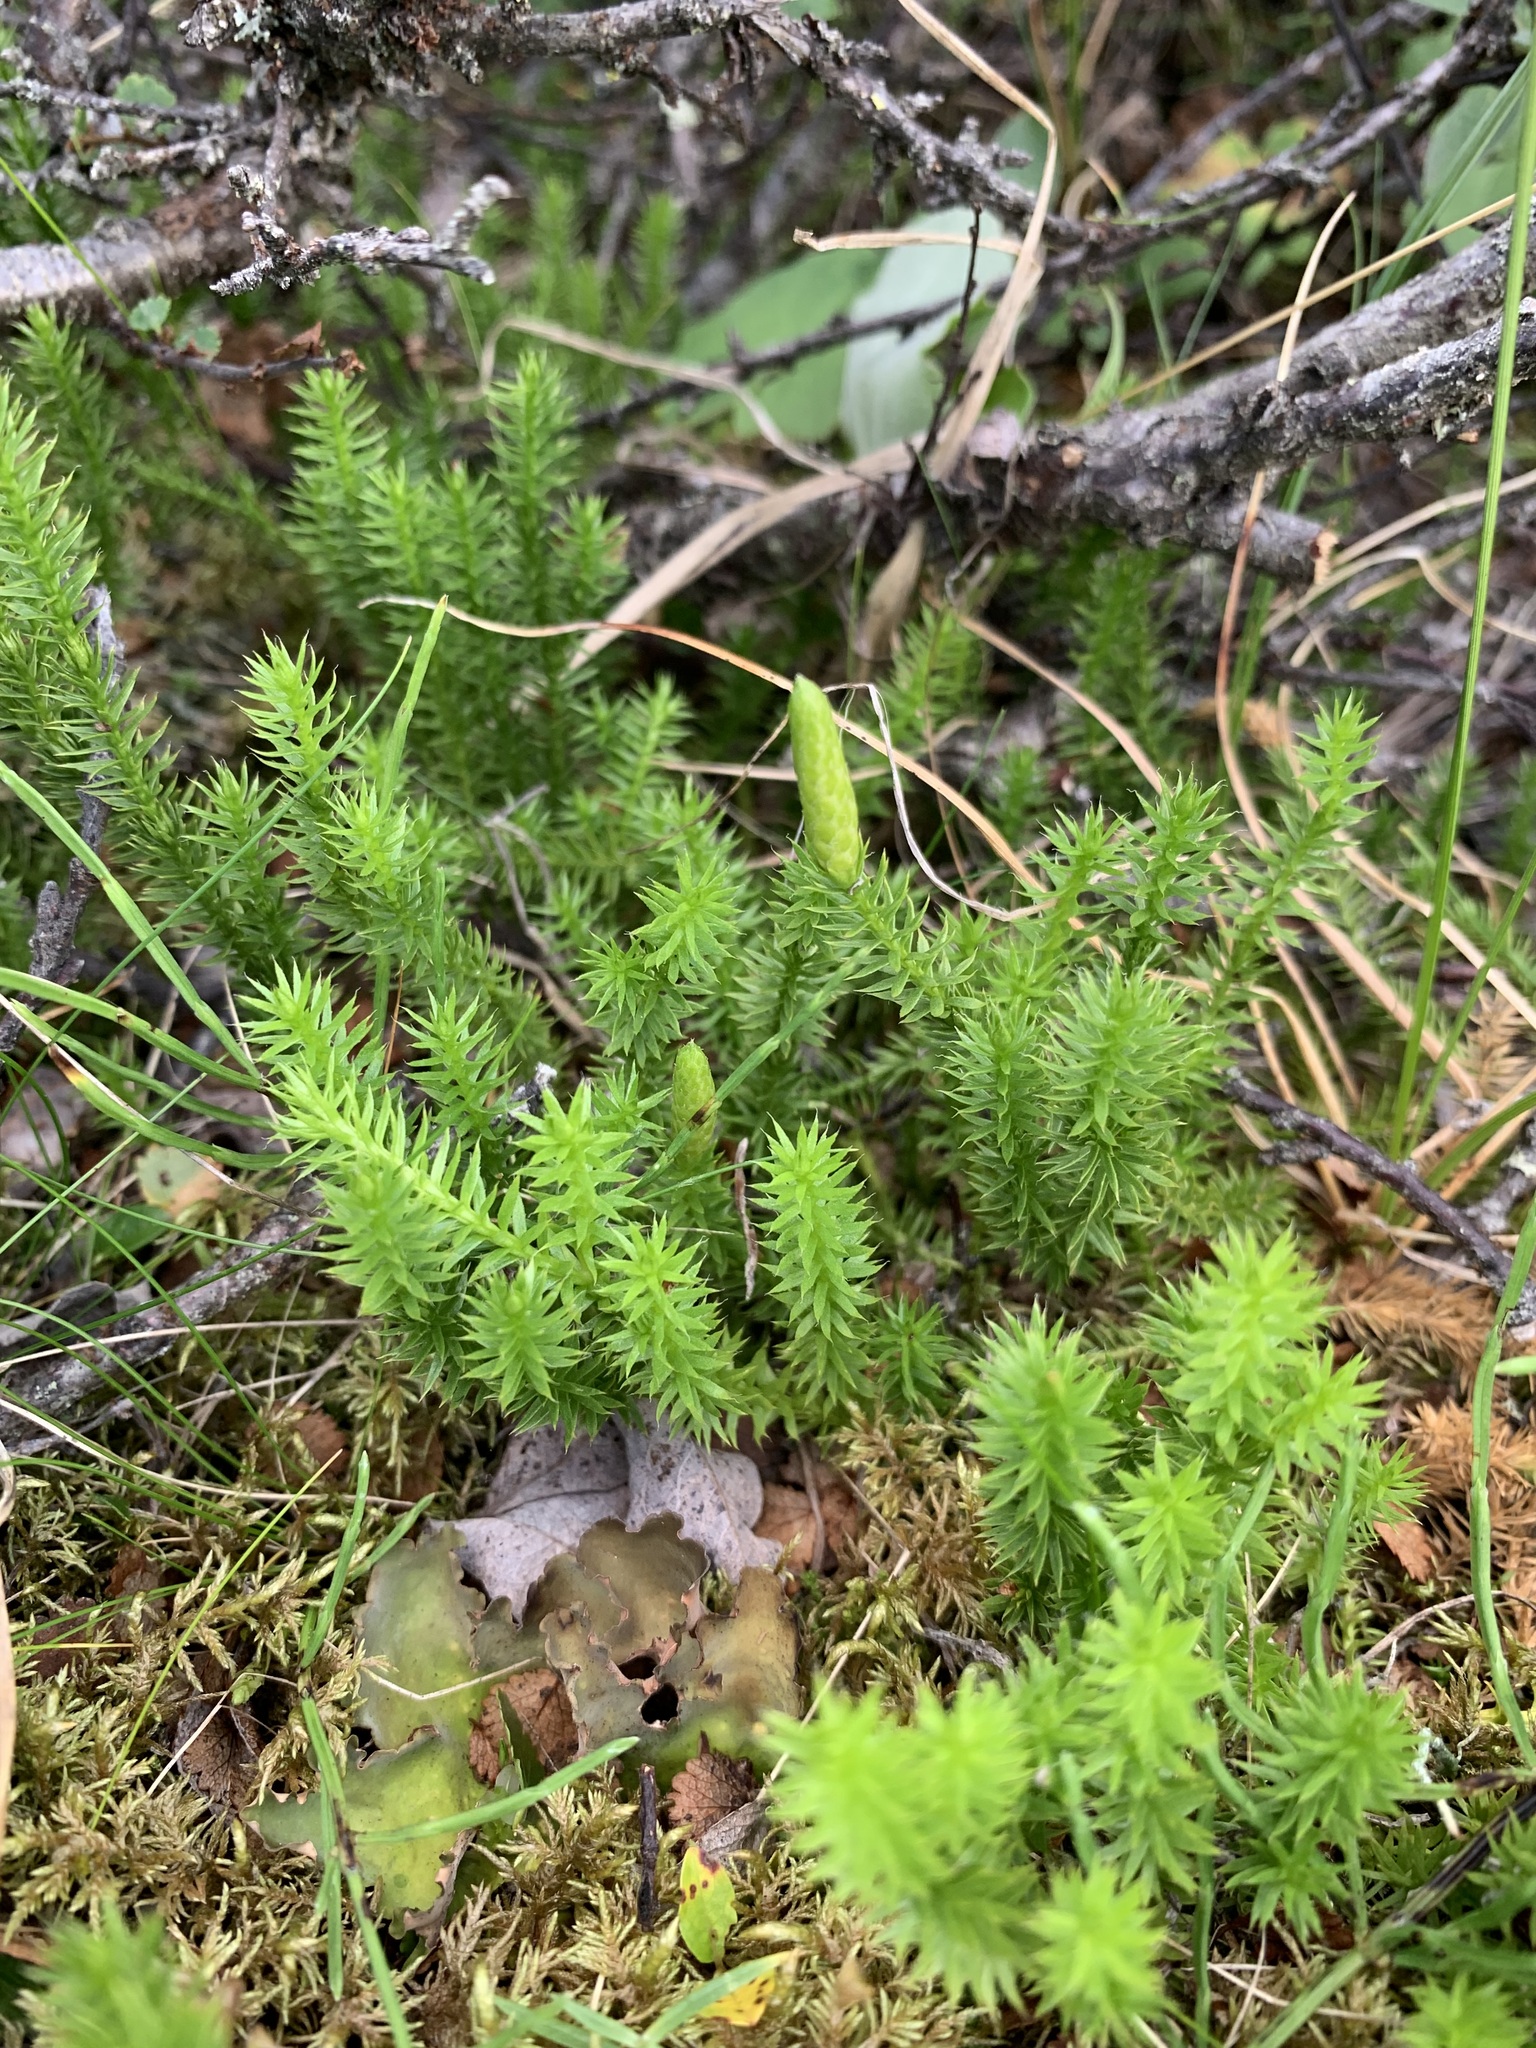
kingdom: Plantae
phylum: Tracheophyta
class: Lycopodiopsida
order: Lycopodiales
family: Lycopodiaceae
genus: Spinulum
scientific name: Spinulum annotinum
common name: Interrupted club-moss
